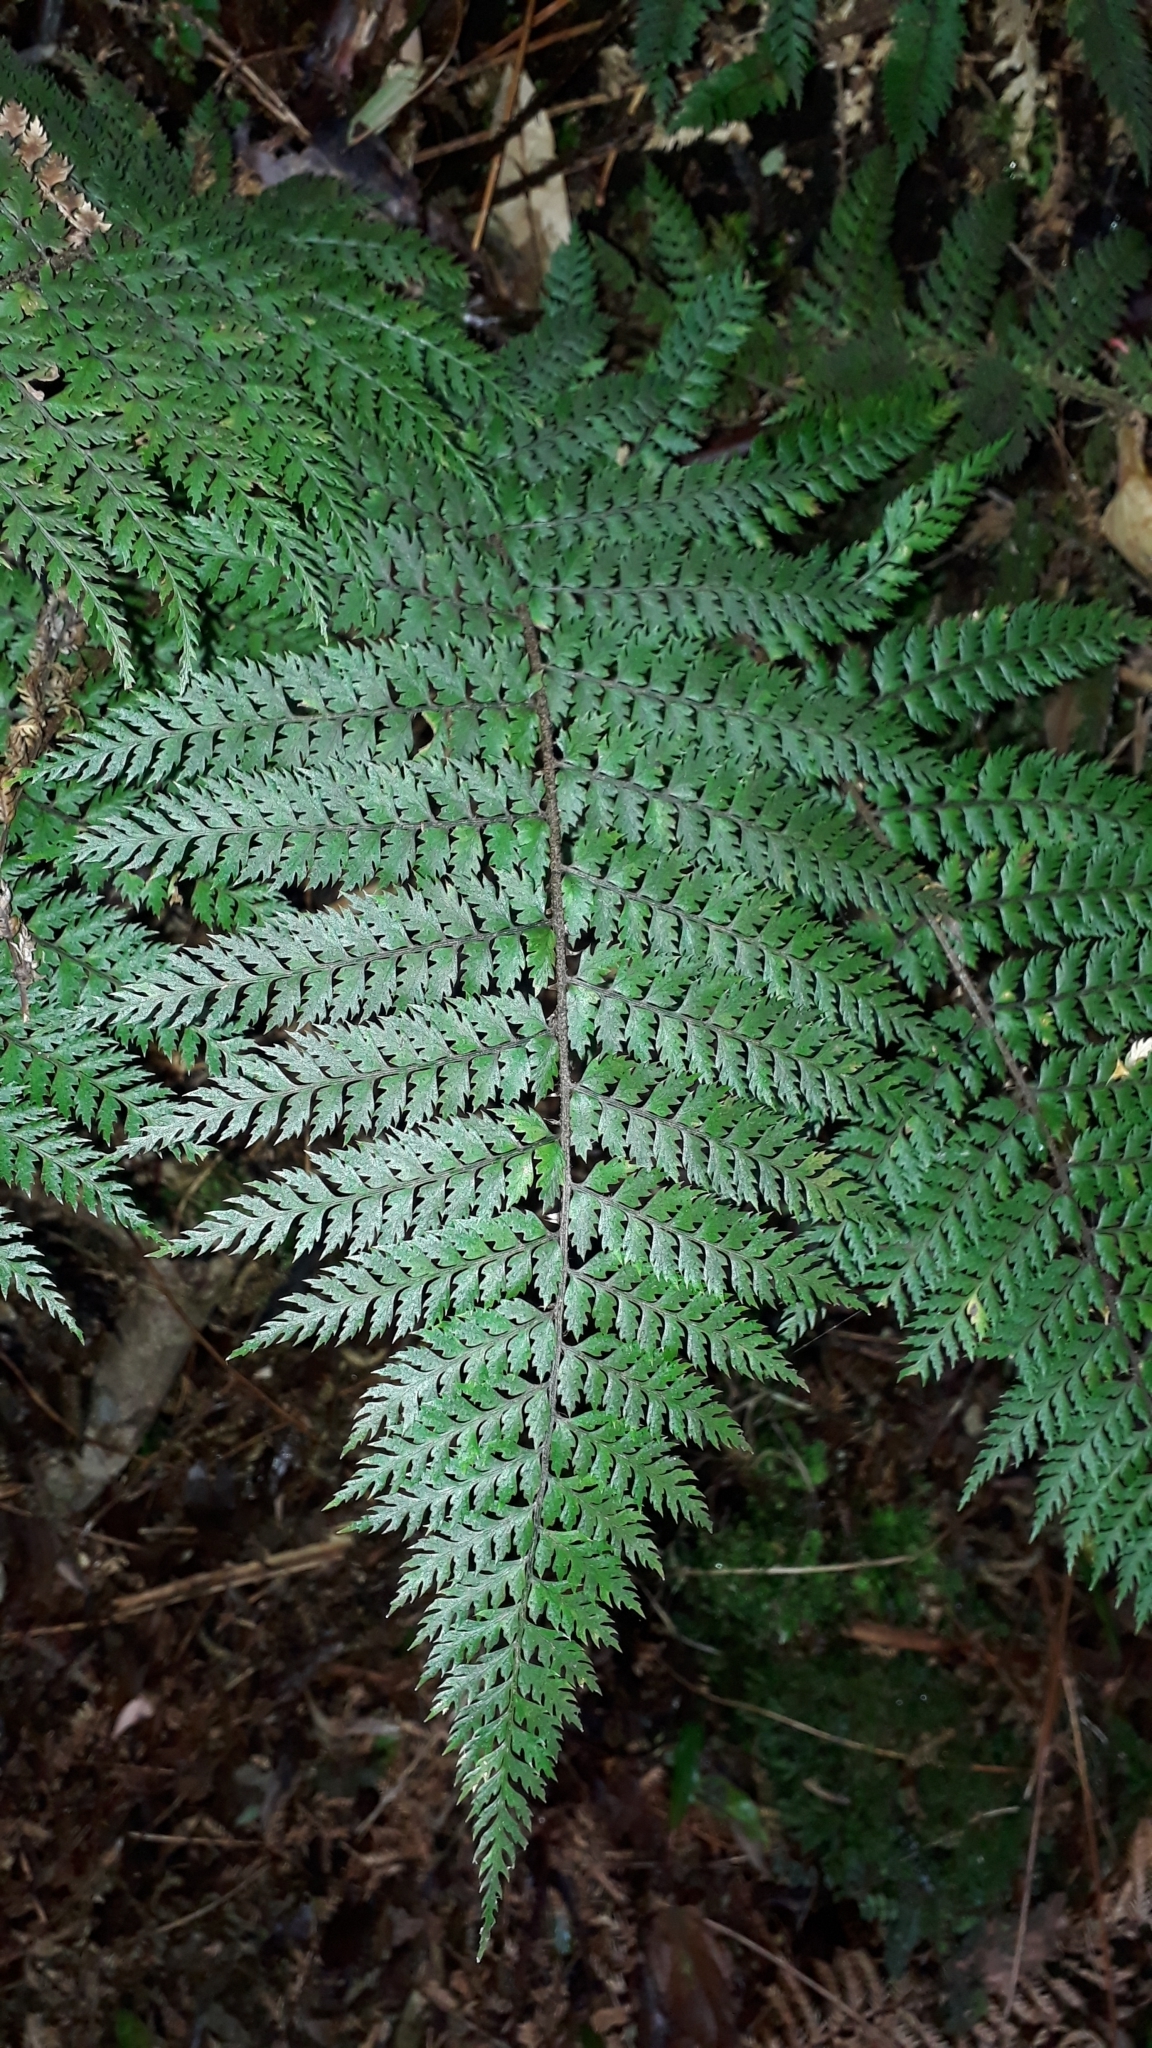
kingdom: Plantae
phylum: Tracheophyta
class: Polypodiopsida
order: Polypodiales
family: Dryopteridaceae
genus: Polystichum
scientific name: Polystichum silvaticum
